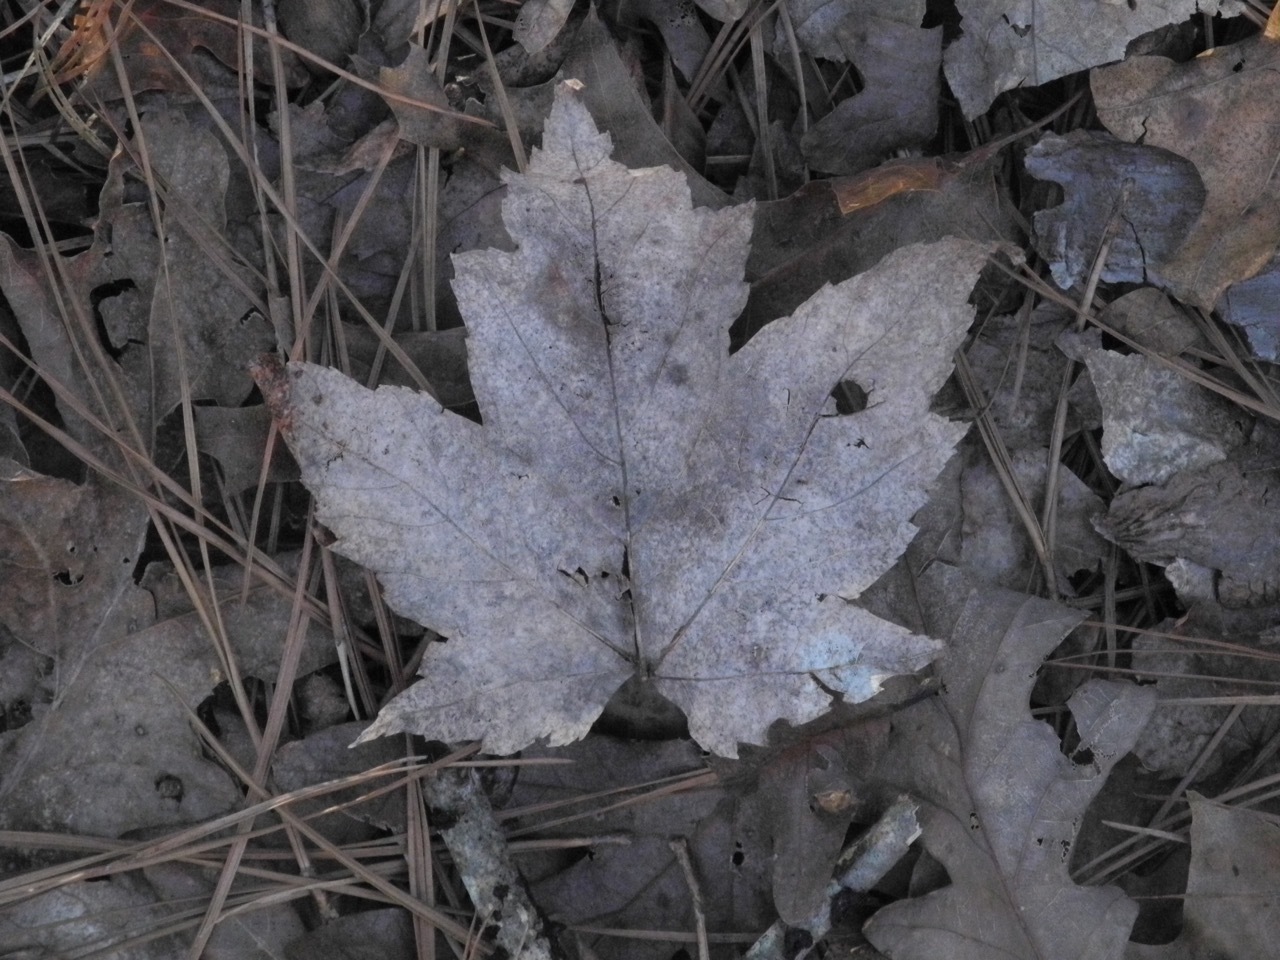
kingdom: Plantae
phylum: Tracheophyta
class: Magnoliopsida
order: Sapindales
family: Sapindaceae
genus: Acer
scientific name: Acer freemanii
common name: Freeman maple
